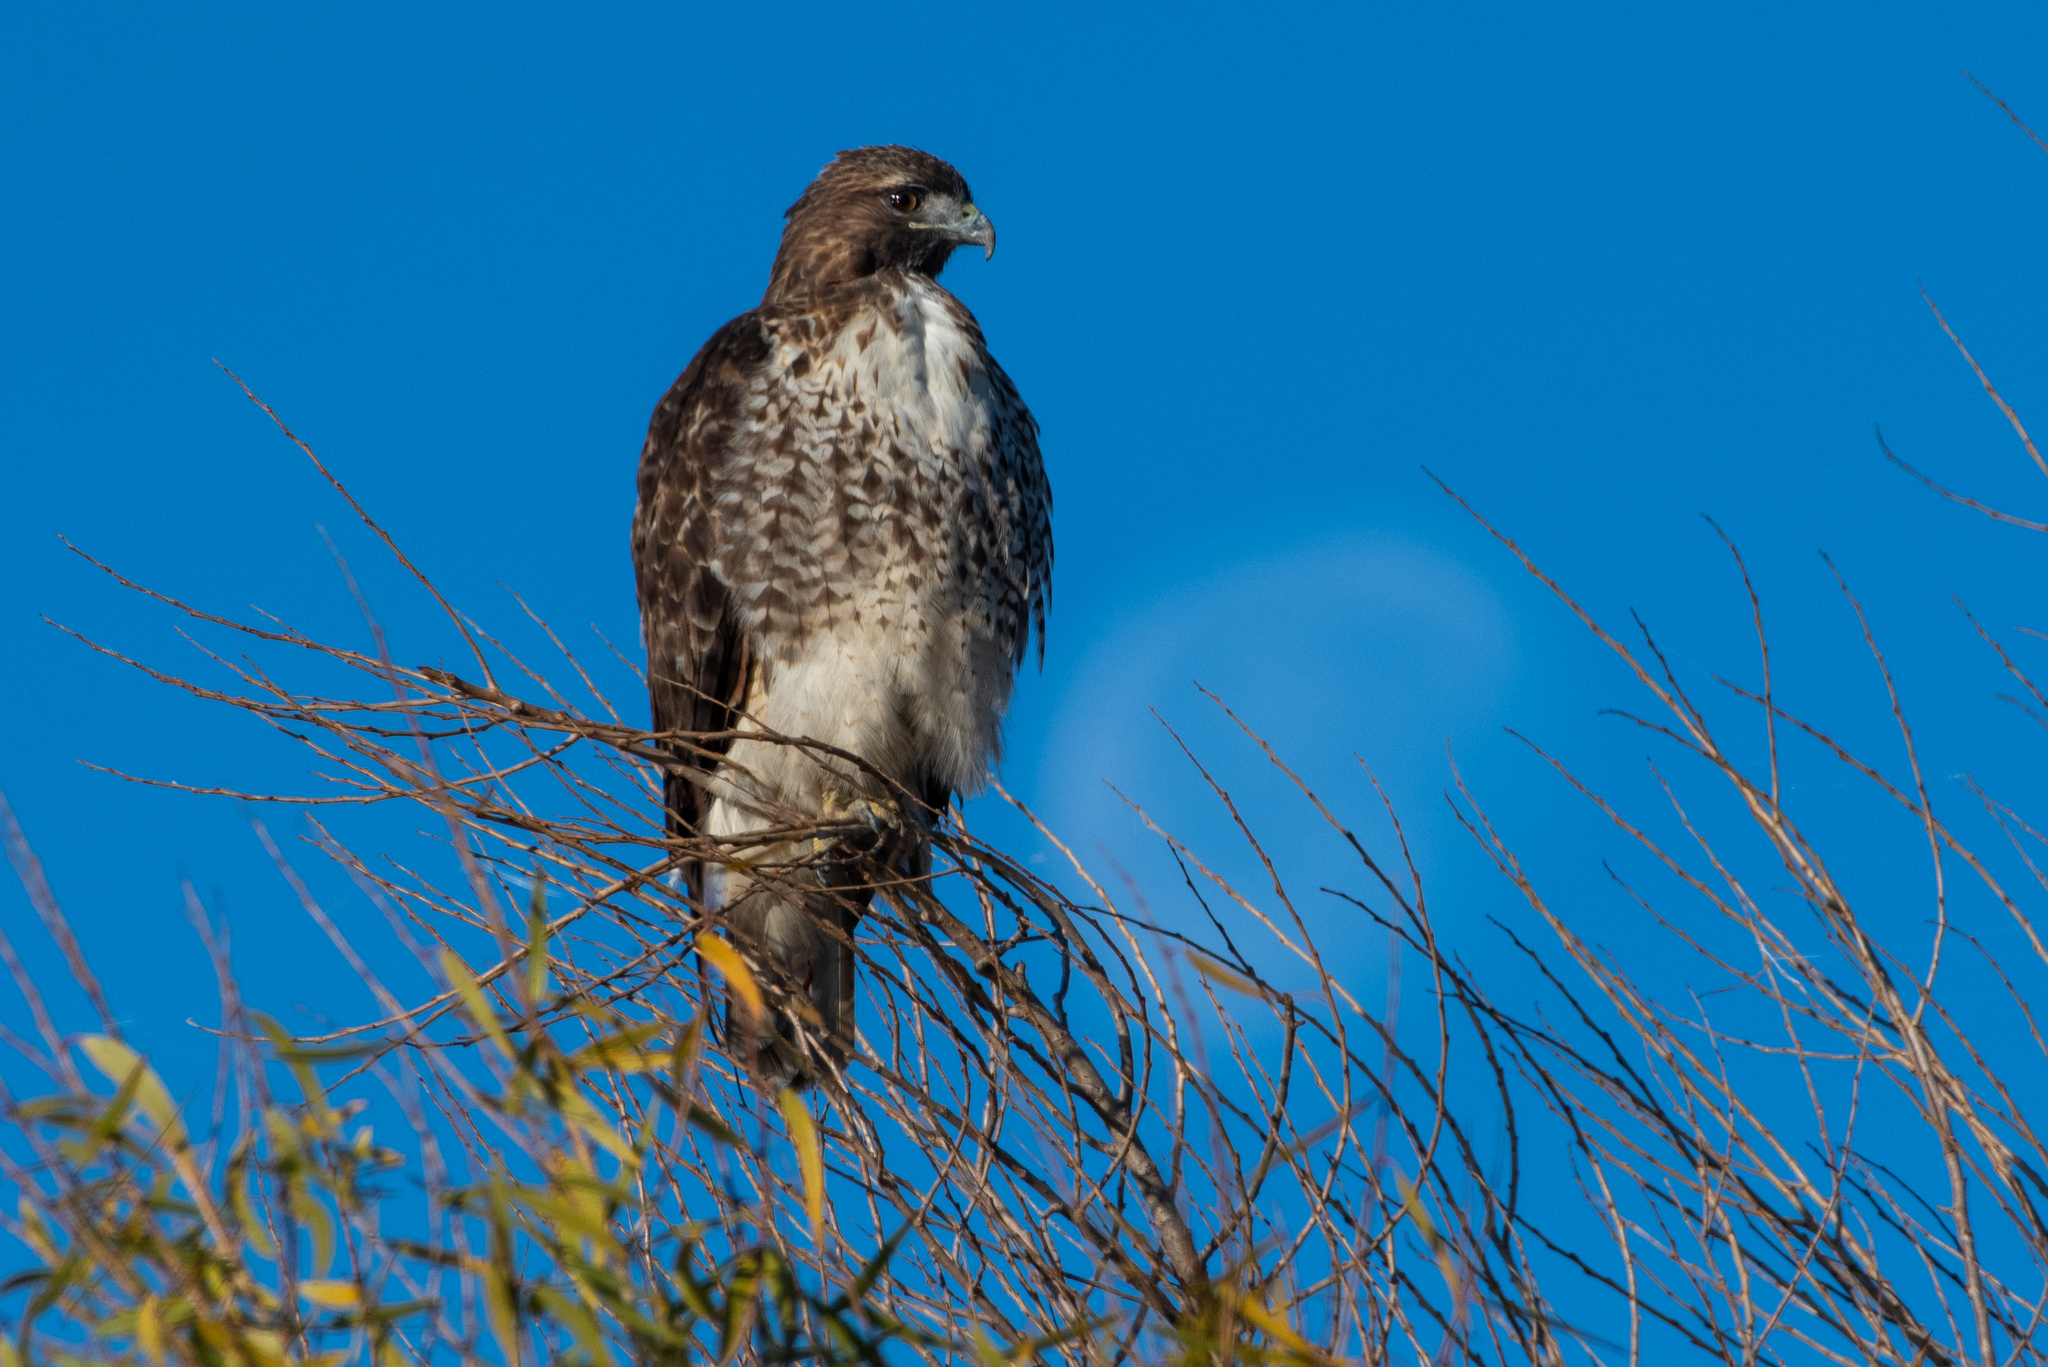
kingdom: Animalia
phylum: Chordata
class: Aves
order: Accipitriformes
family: Accipitridae
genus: Buteo
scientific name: Buteo jamaicensis
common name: Red-tailed hawk
